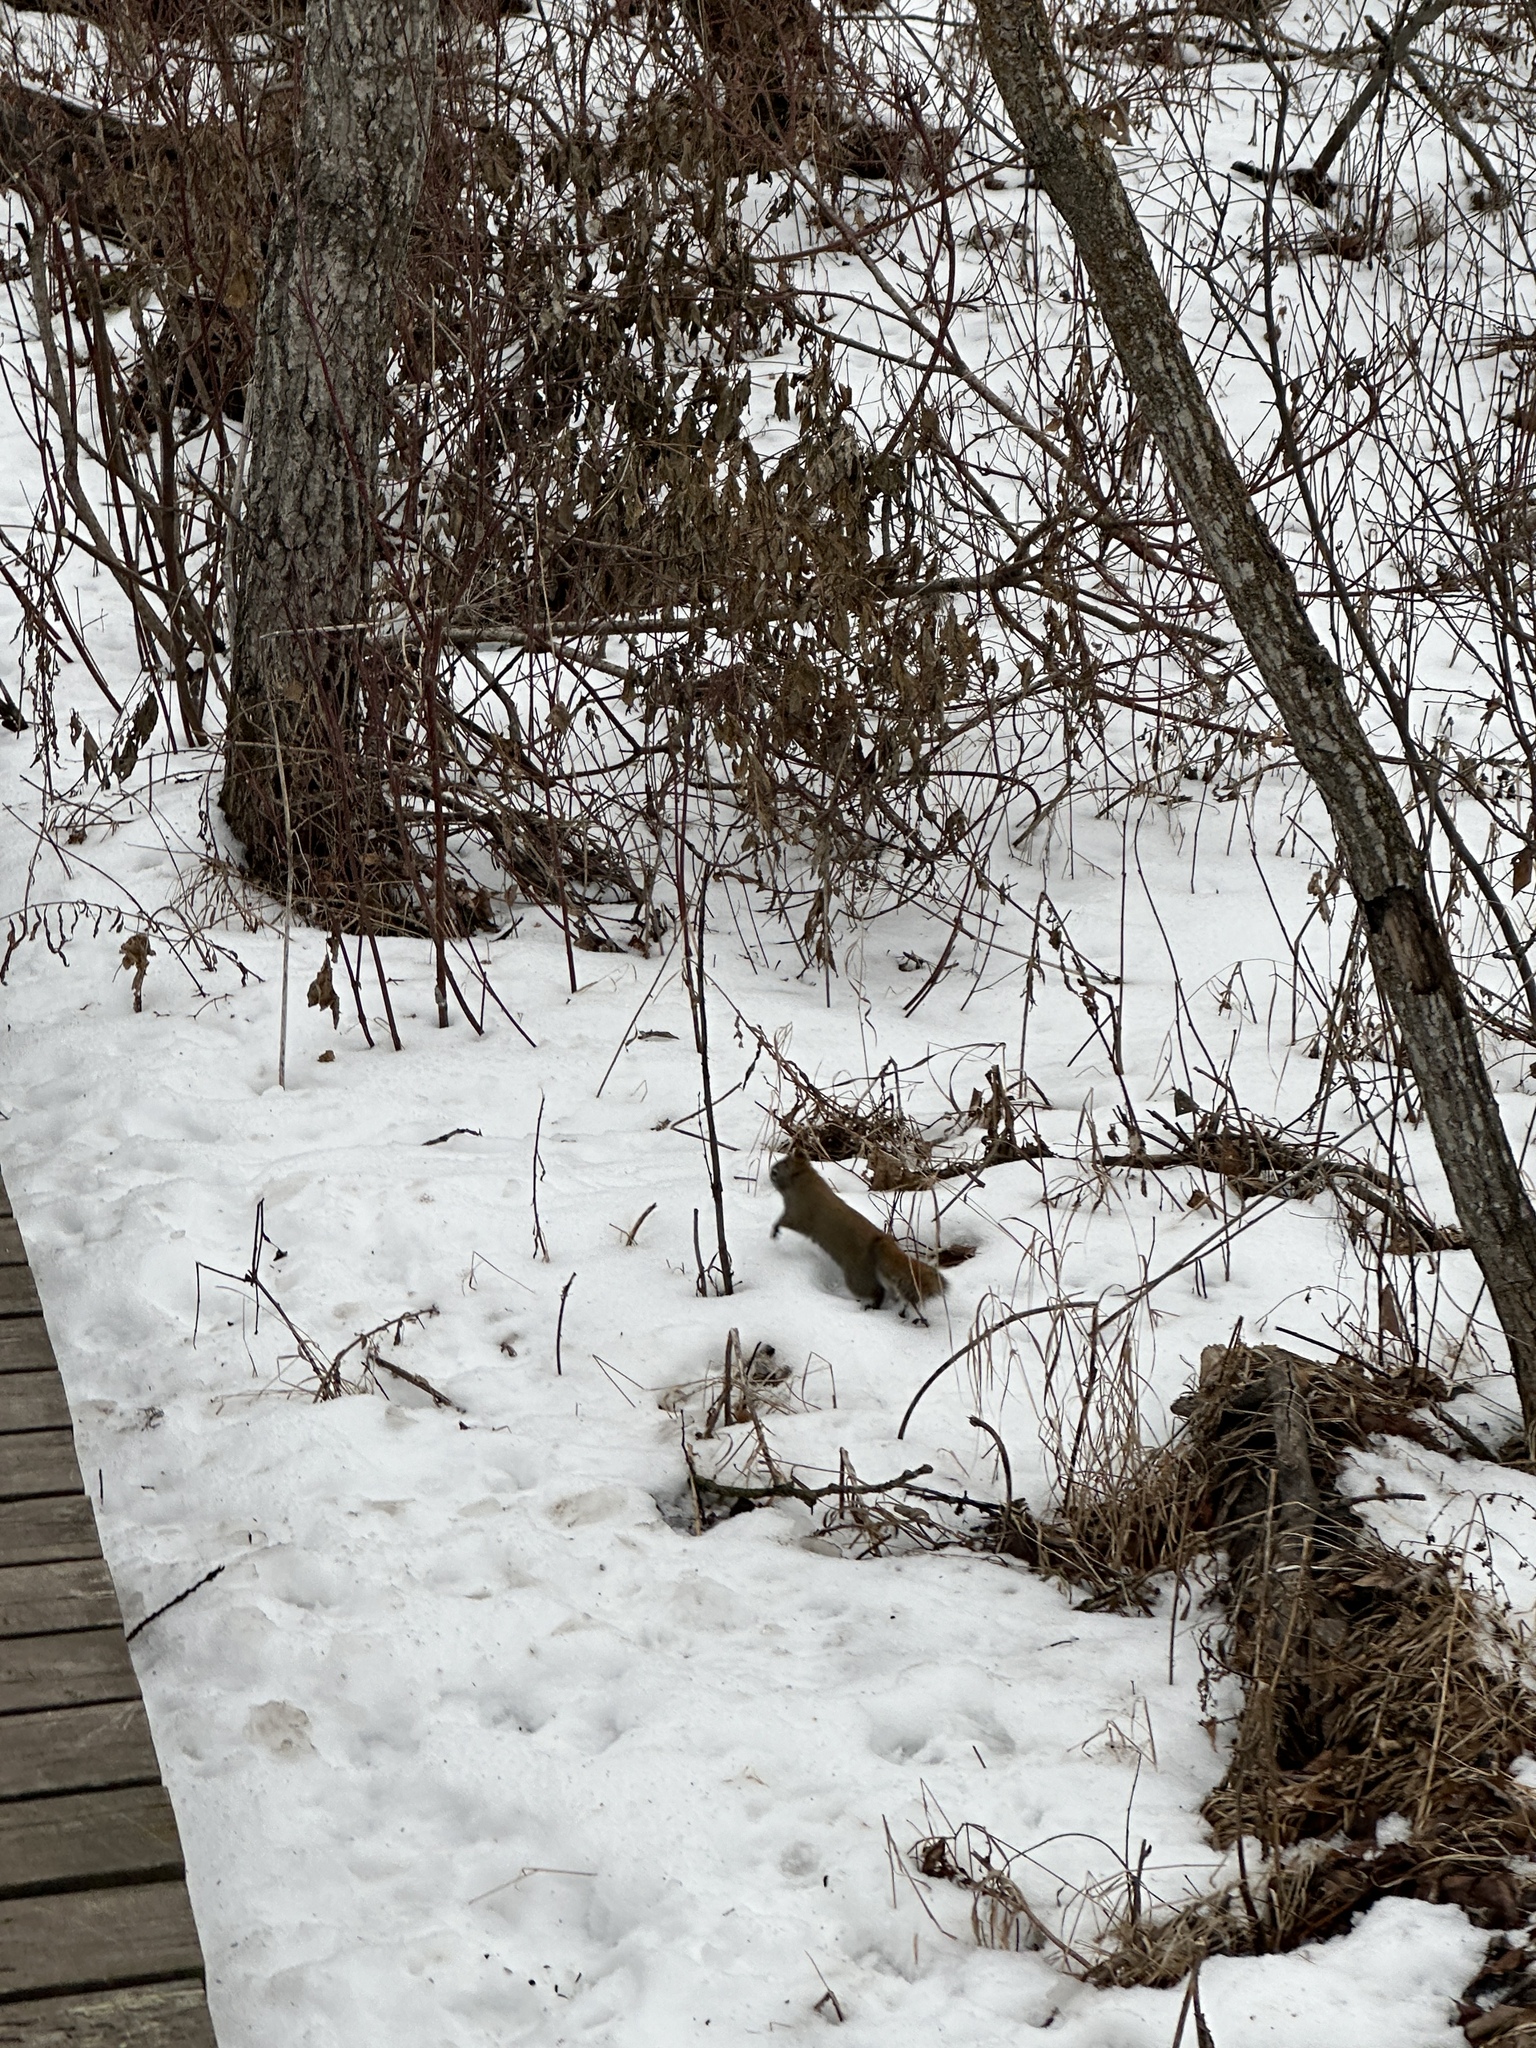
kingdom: Animalia
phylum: Chordata
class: Mammalia
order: Rodentia
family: Sciuridae
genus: Tamiasciurus
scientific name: Tamiasciurus hudsonicus
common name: Red squirrel
